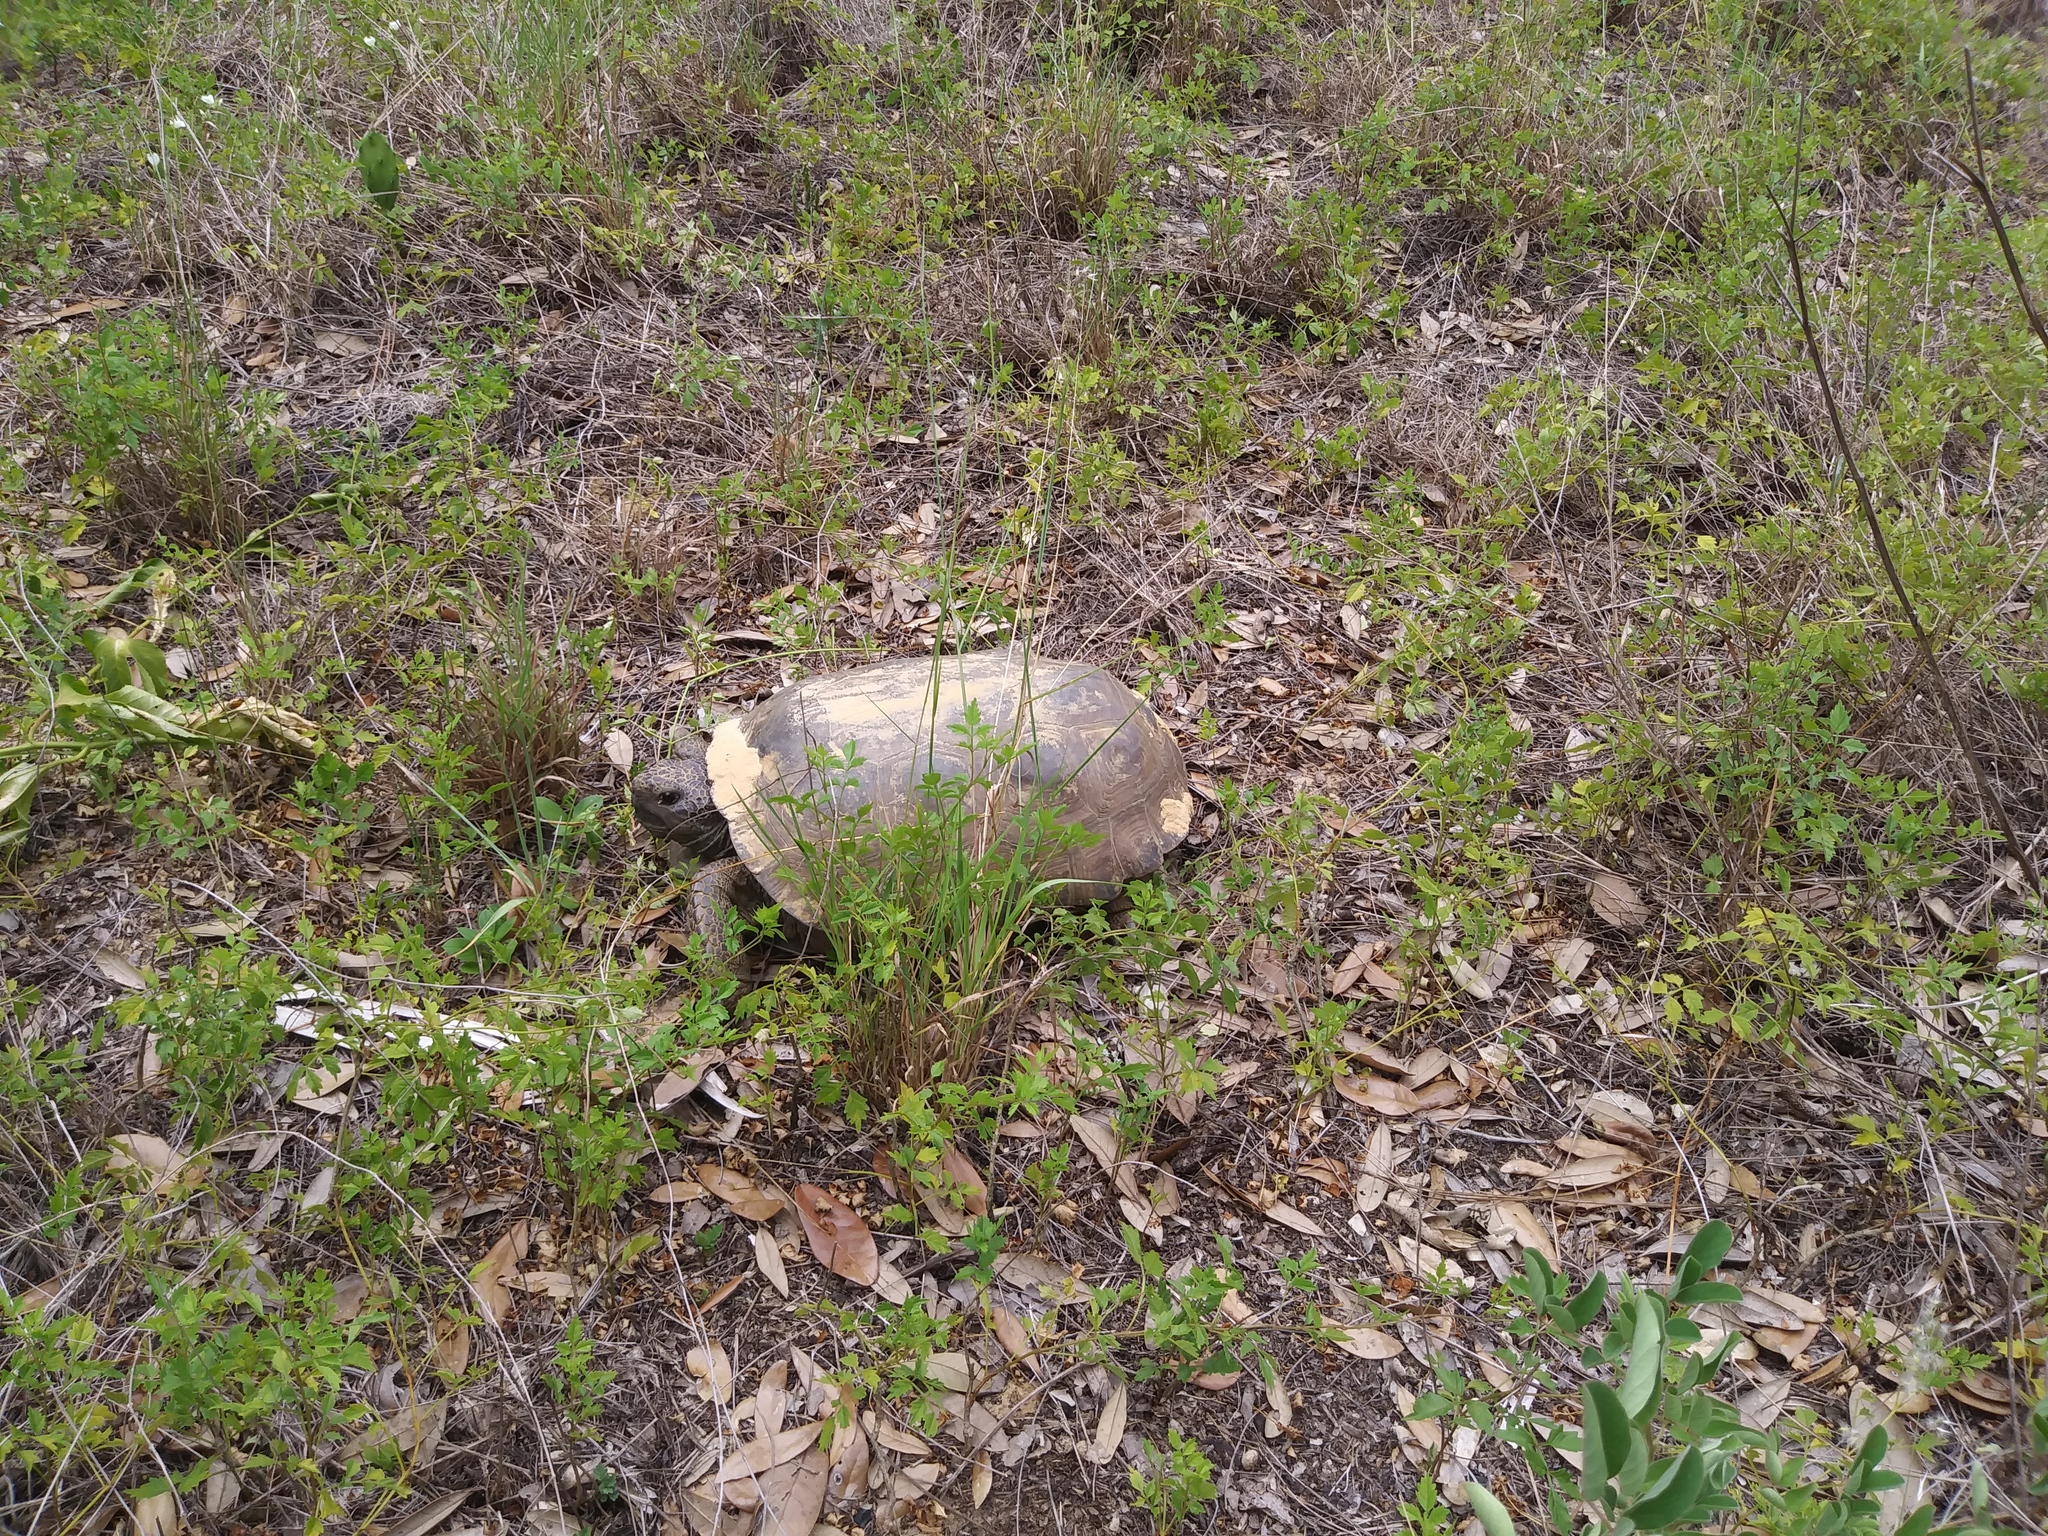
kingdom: Animalia
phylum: Chordata
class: Testudines
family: Testudinidae
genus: Gopherus
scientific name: Gopherus polyphemus
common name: Florida gopher tortoise
